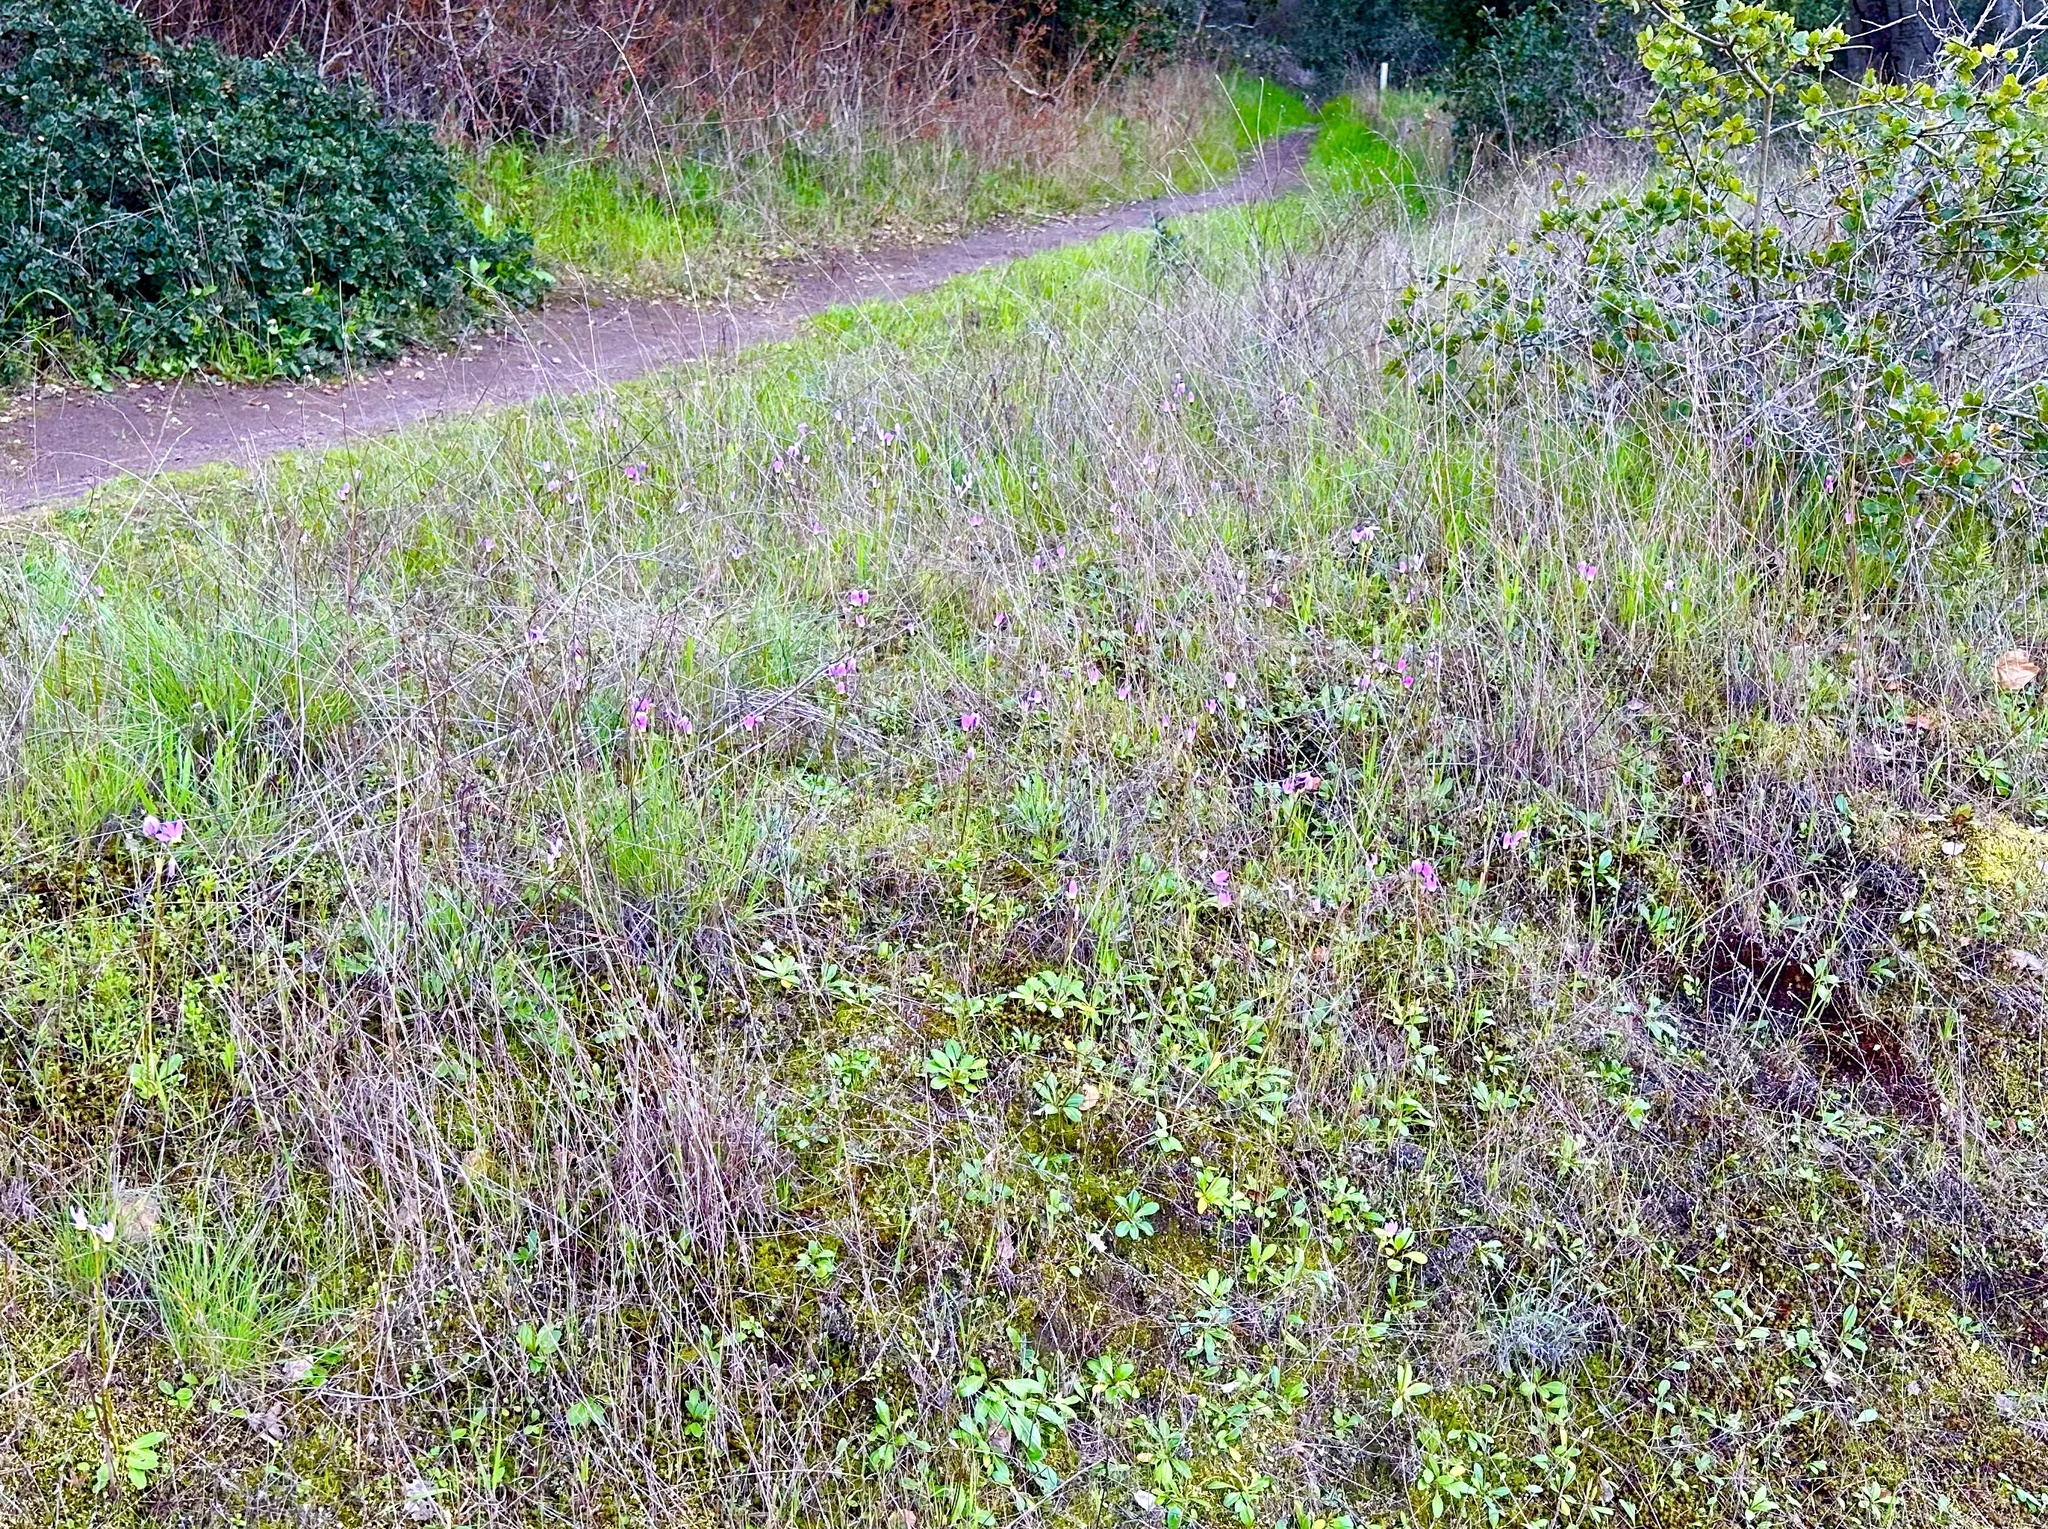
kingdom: Plantae
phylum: Tracheophyta
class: Magnoliopsida
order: Ericales
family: Primulaceae
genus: Dodecatheon
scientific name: Dodecatheon clevelandii
